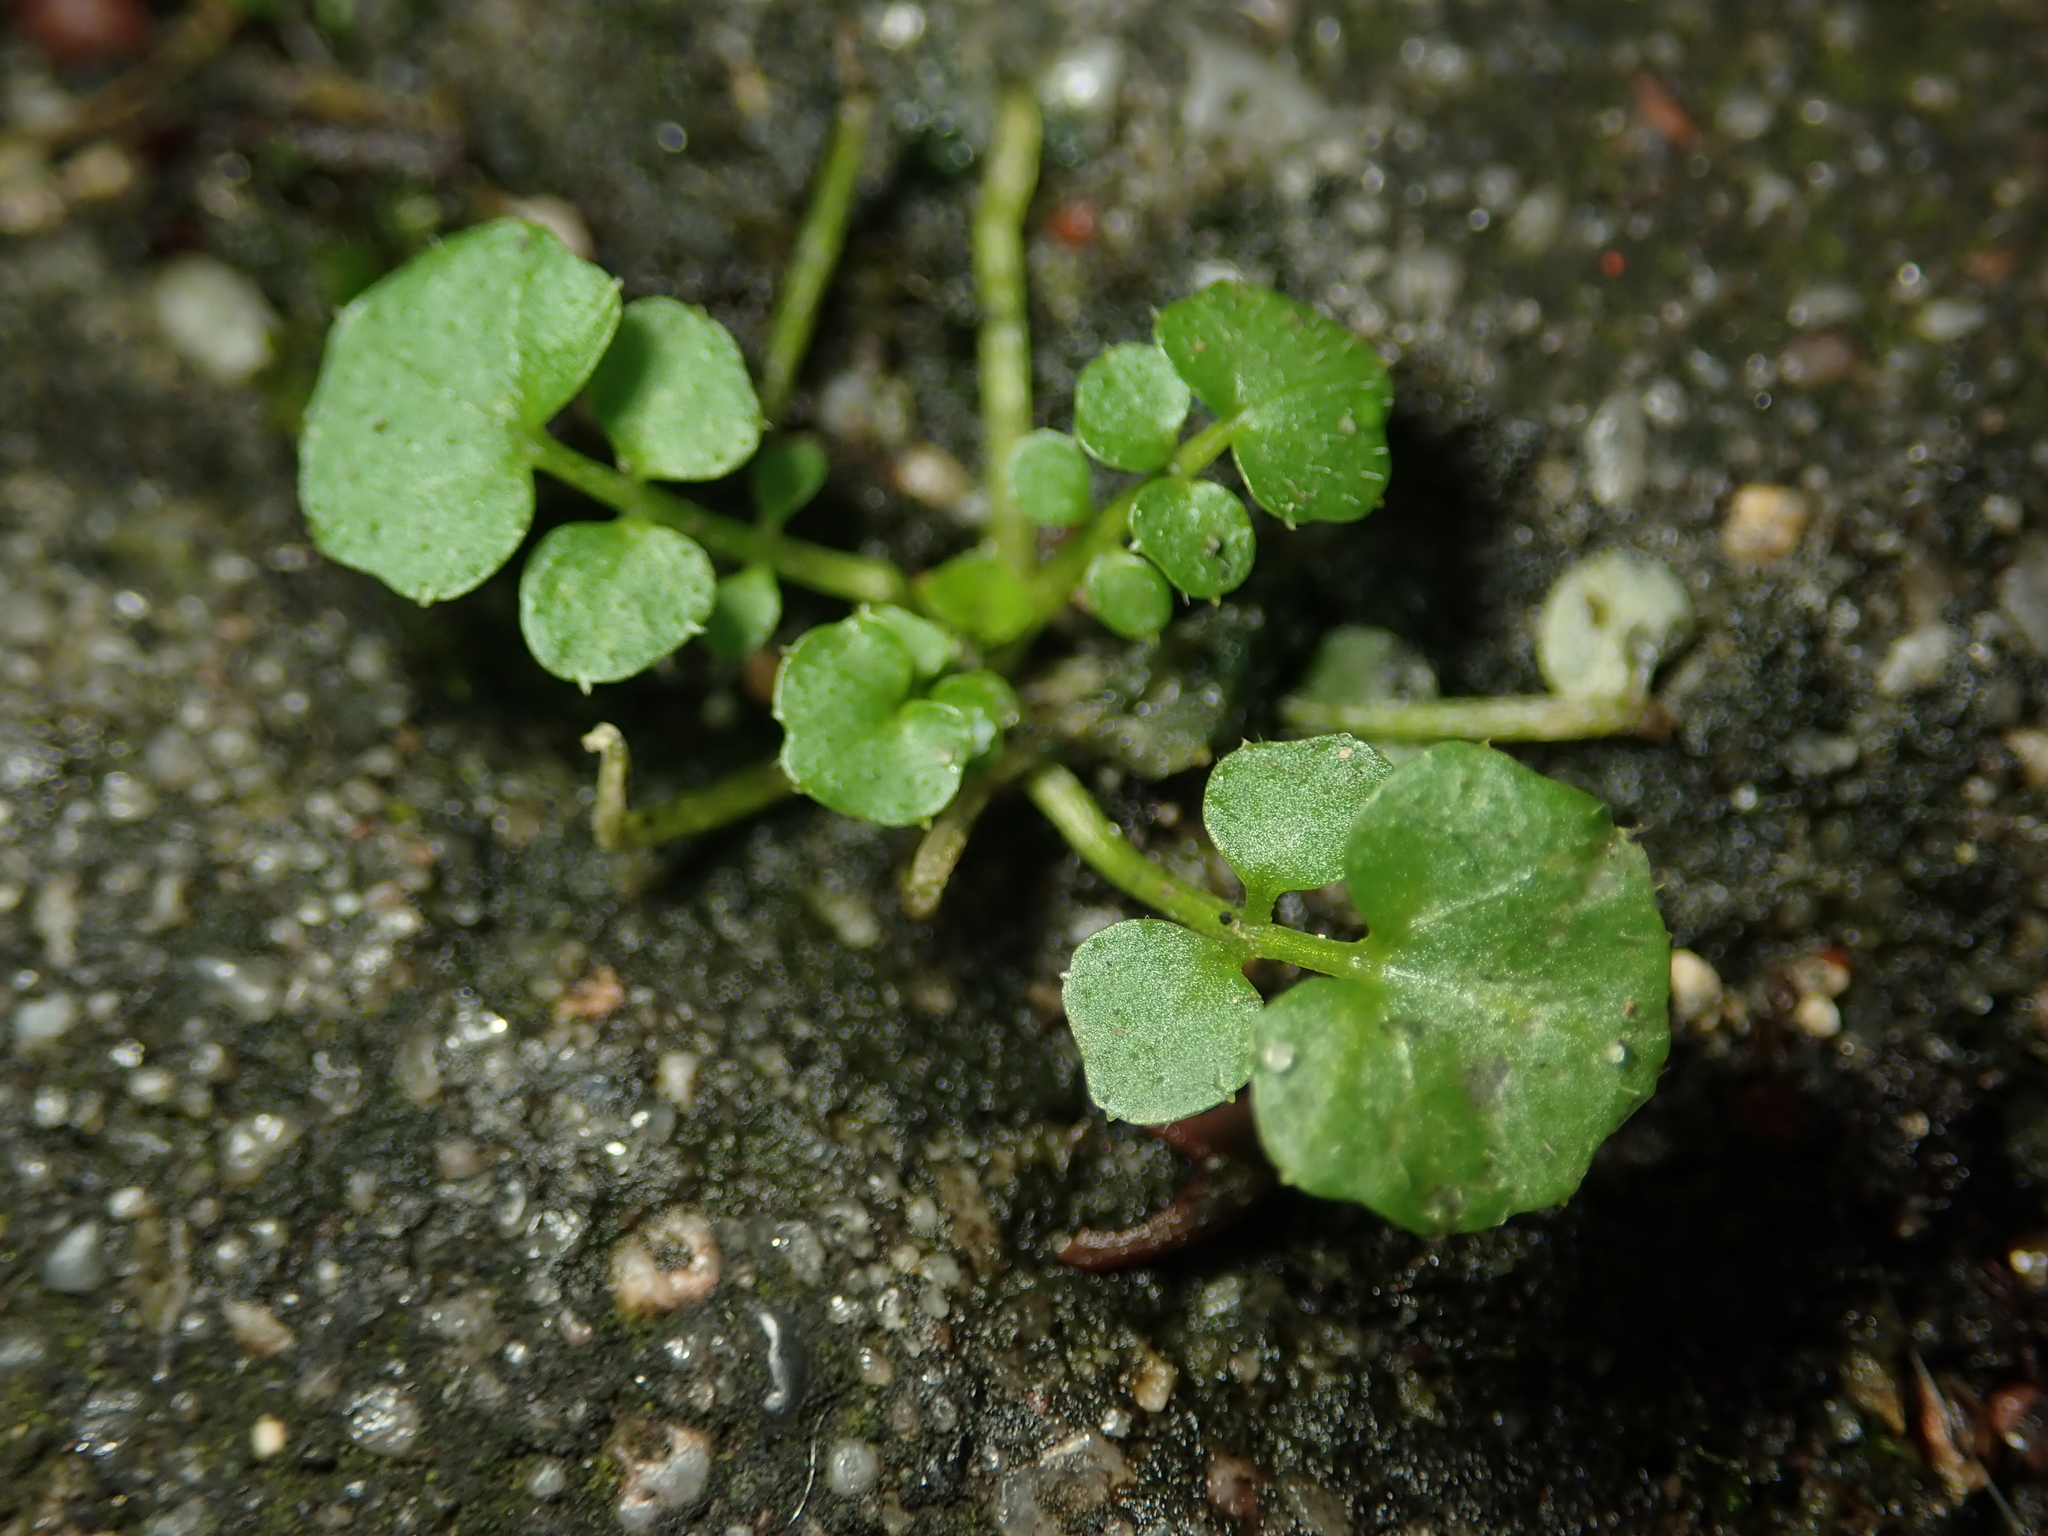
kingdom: Plantae
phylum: Tracheophyta
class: Magnoliopsida
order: Brassicales
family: Brassicaceae
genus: Cardamine
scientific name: Cardamine hirsuta
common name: Hairy bittercress
